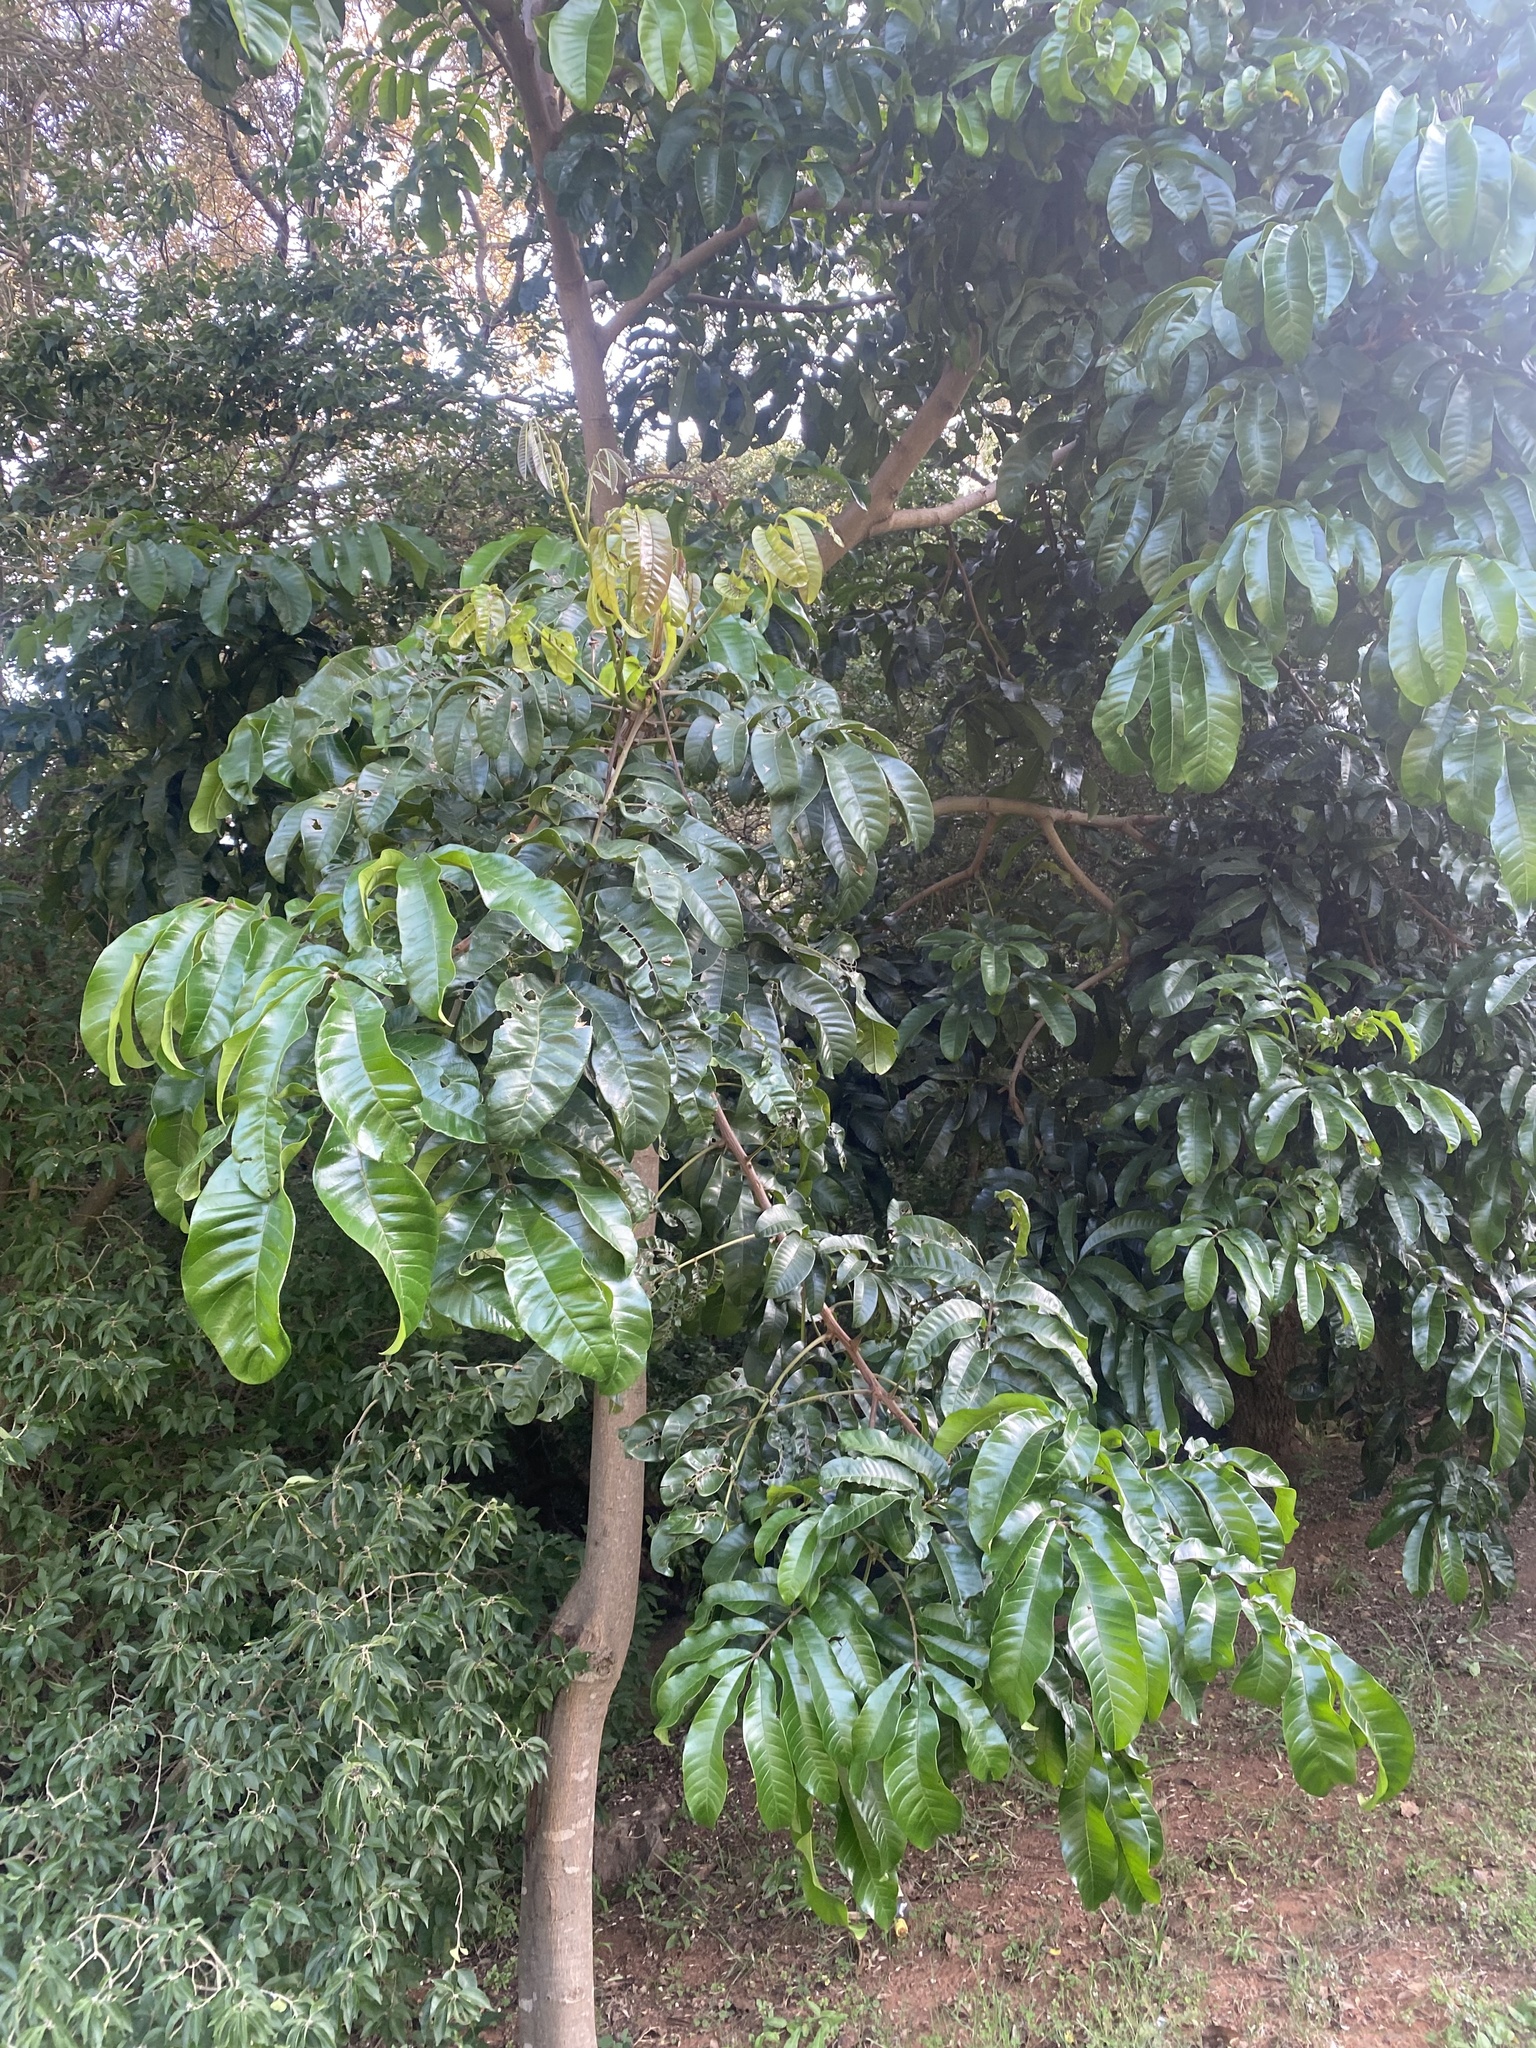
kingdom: Plantae
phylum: Tracheophyta
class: Magnoliopsida
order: Sapindales
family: Meliaceae
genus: Trichilia
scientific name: Trichilia dregeana
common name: Christmas-bells
